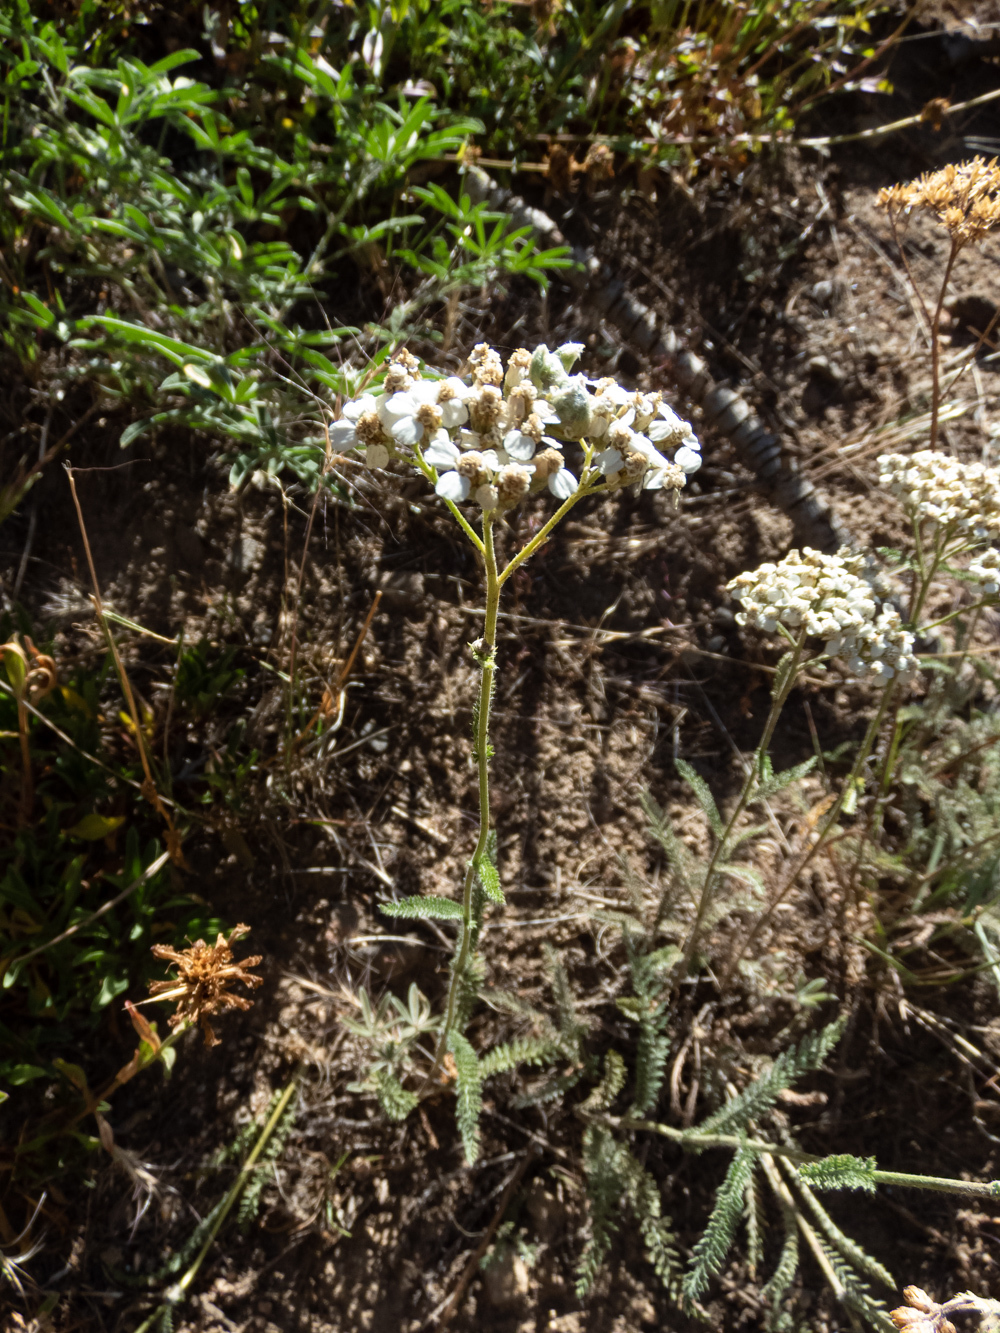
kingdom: Plantae
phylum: Tracheophyta
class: Magnoliopsida
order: Asterales
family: Asteraceae
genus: Achillea
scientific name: Achillea millefolium
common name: Yarrow
